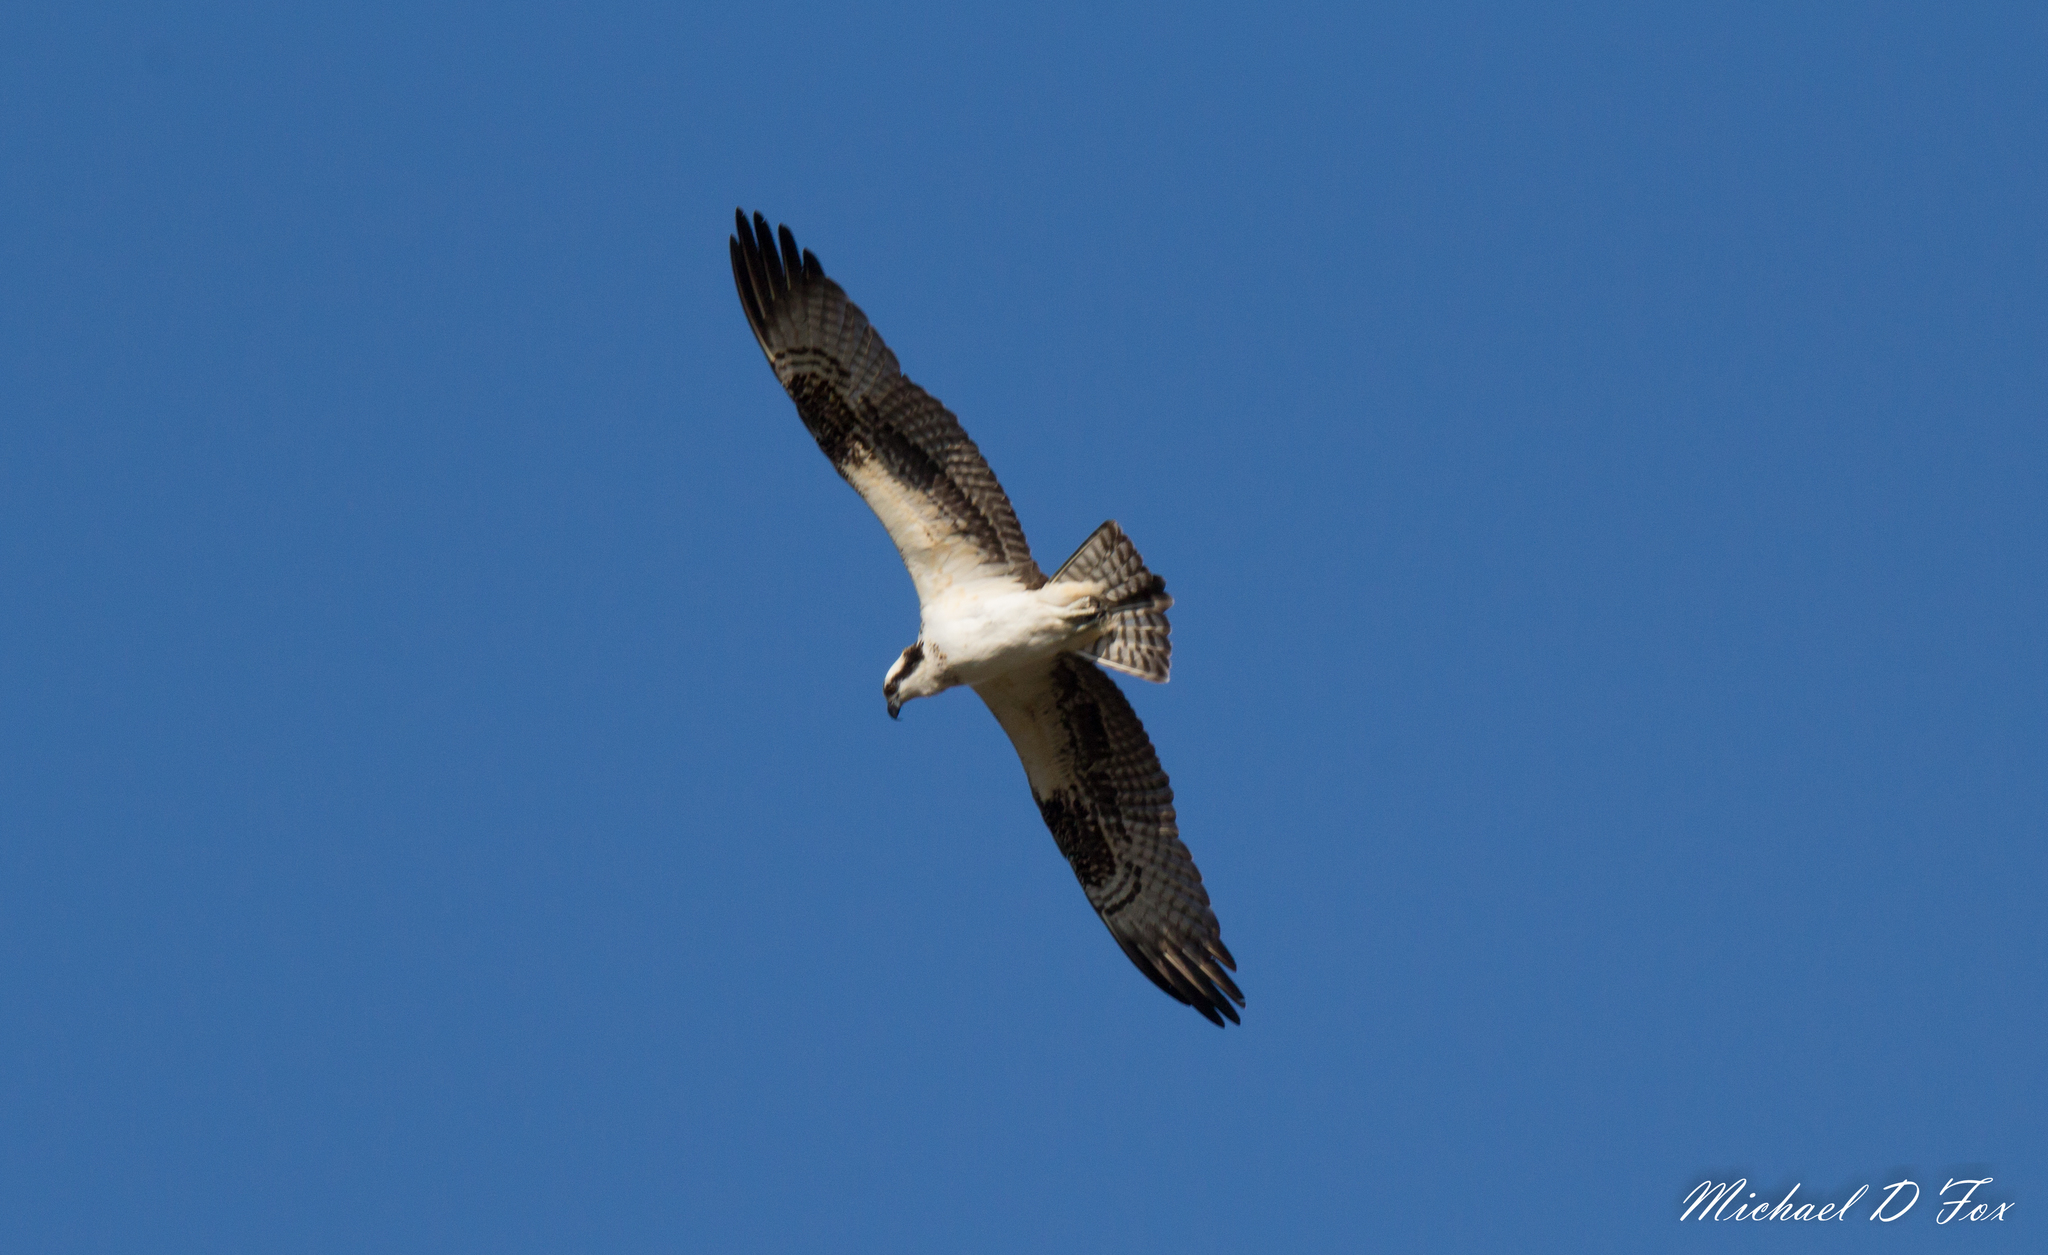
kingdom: Animalia
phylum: Chordata
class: Aves
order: Accipitriformes
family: Pandionidae
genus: Pandion
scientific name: Pandion haliaetus
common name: Osprey
